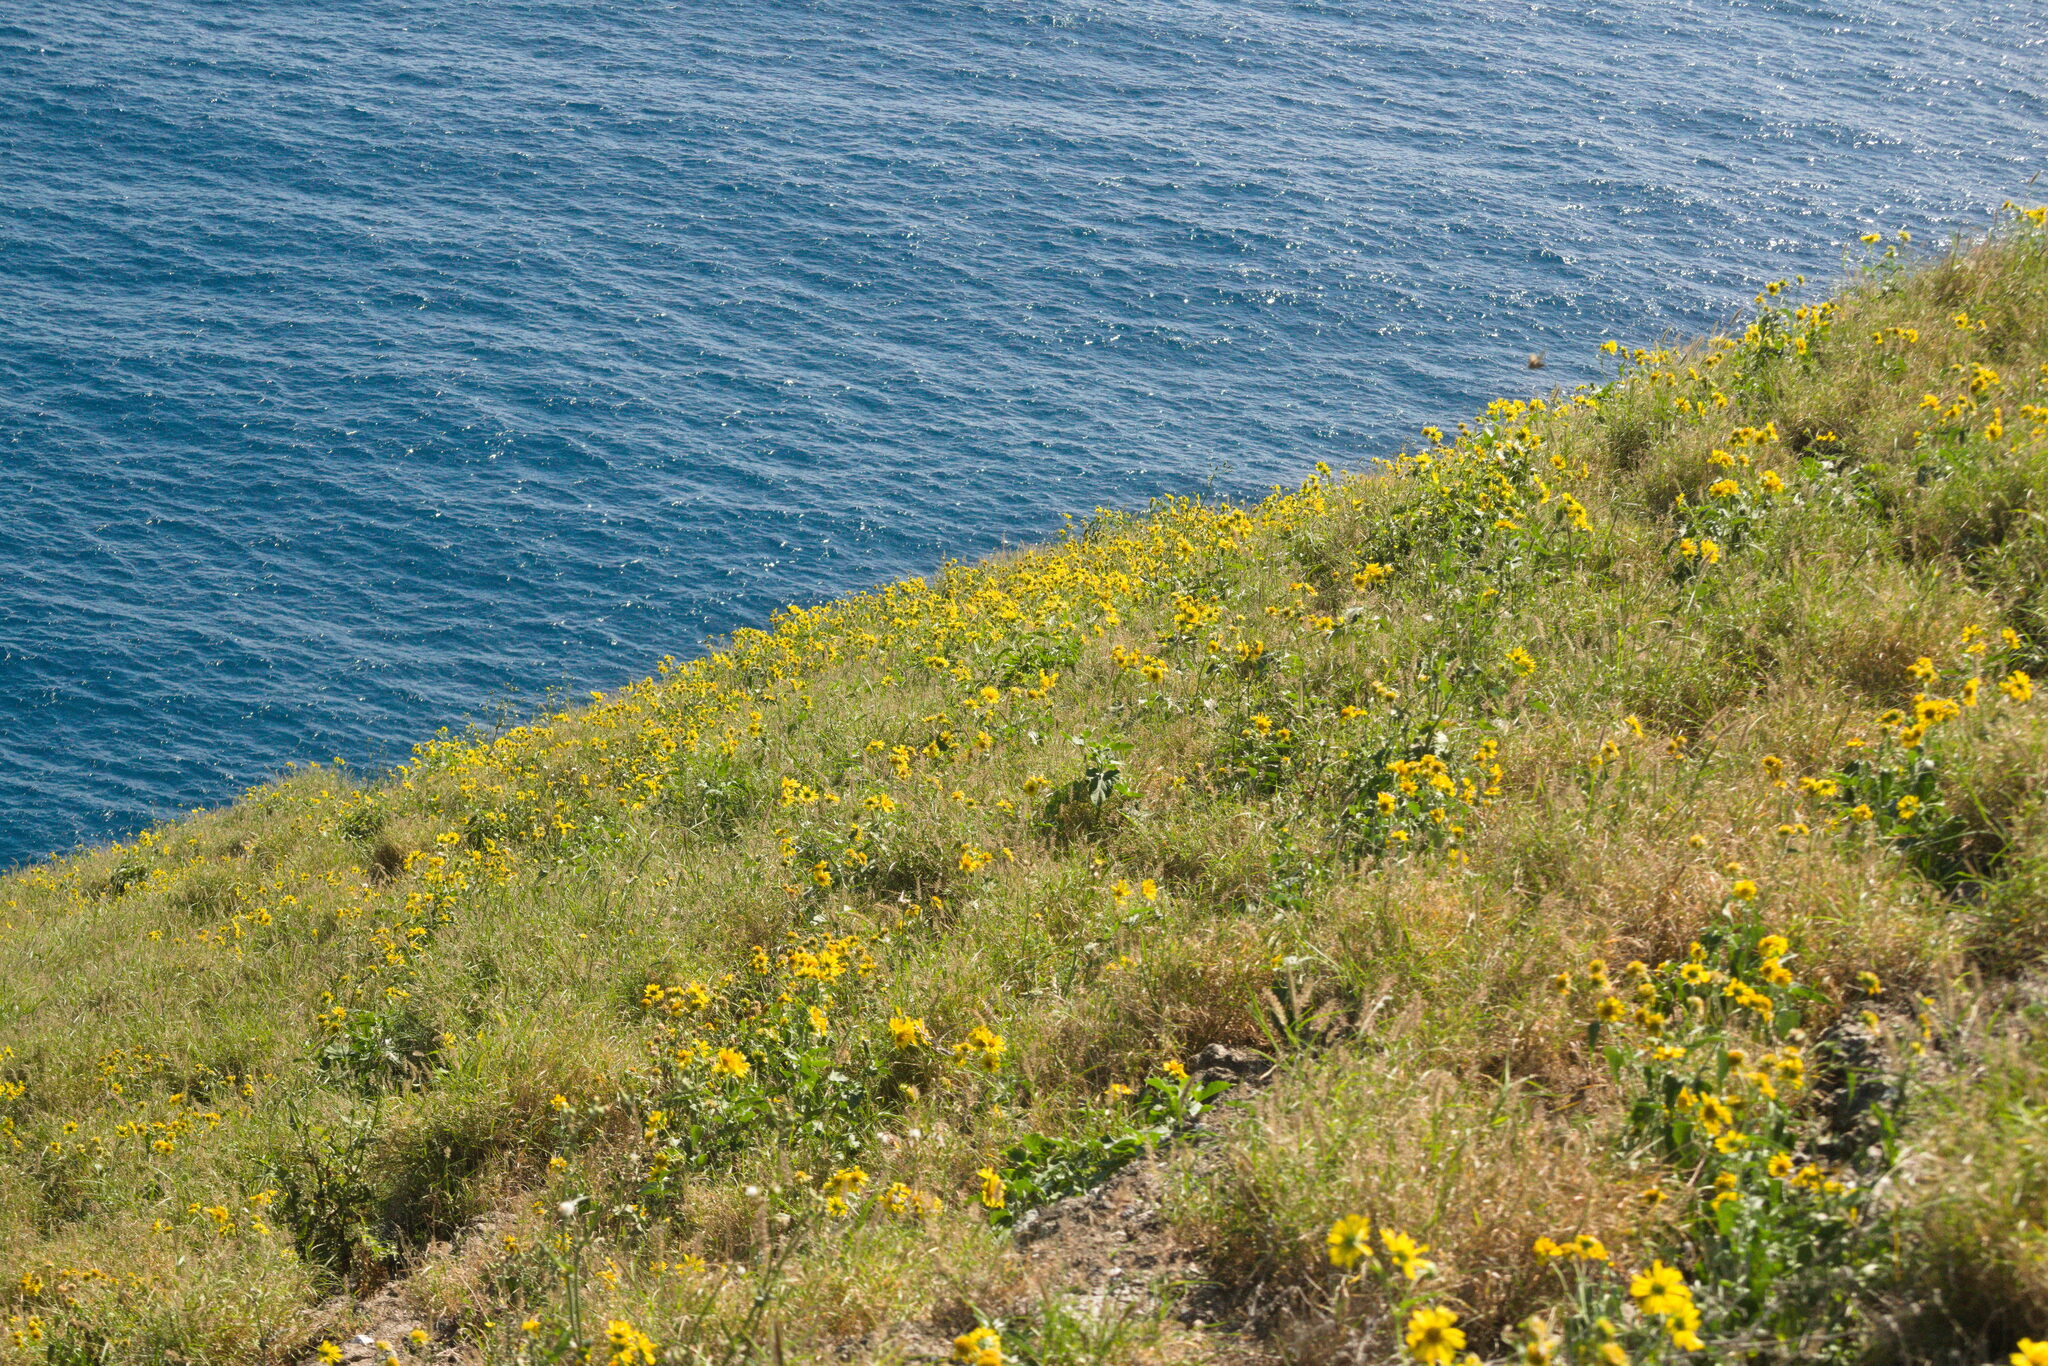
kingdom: Plantae
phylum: Tracheophyta
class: Magnoliopsida
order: Asterales
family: Asteraceae
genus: Verbesina
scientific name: Verbesina encelioides
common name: Golden crownbeard
